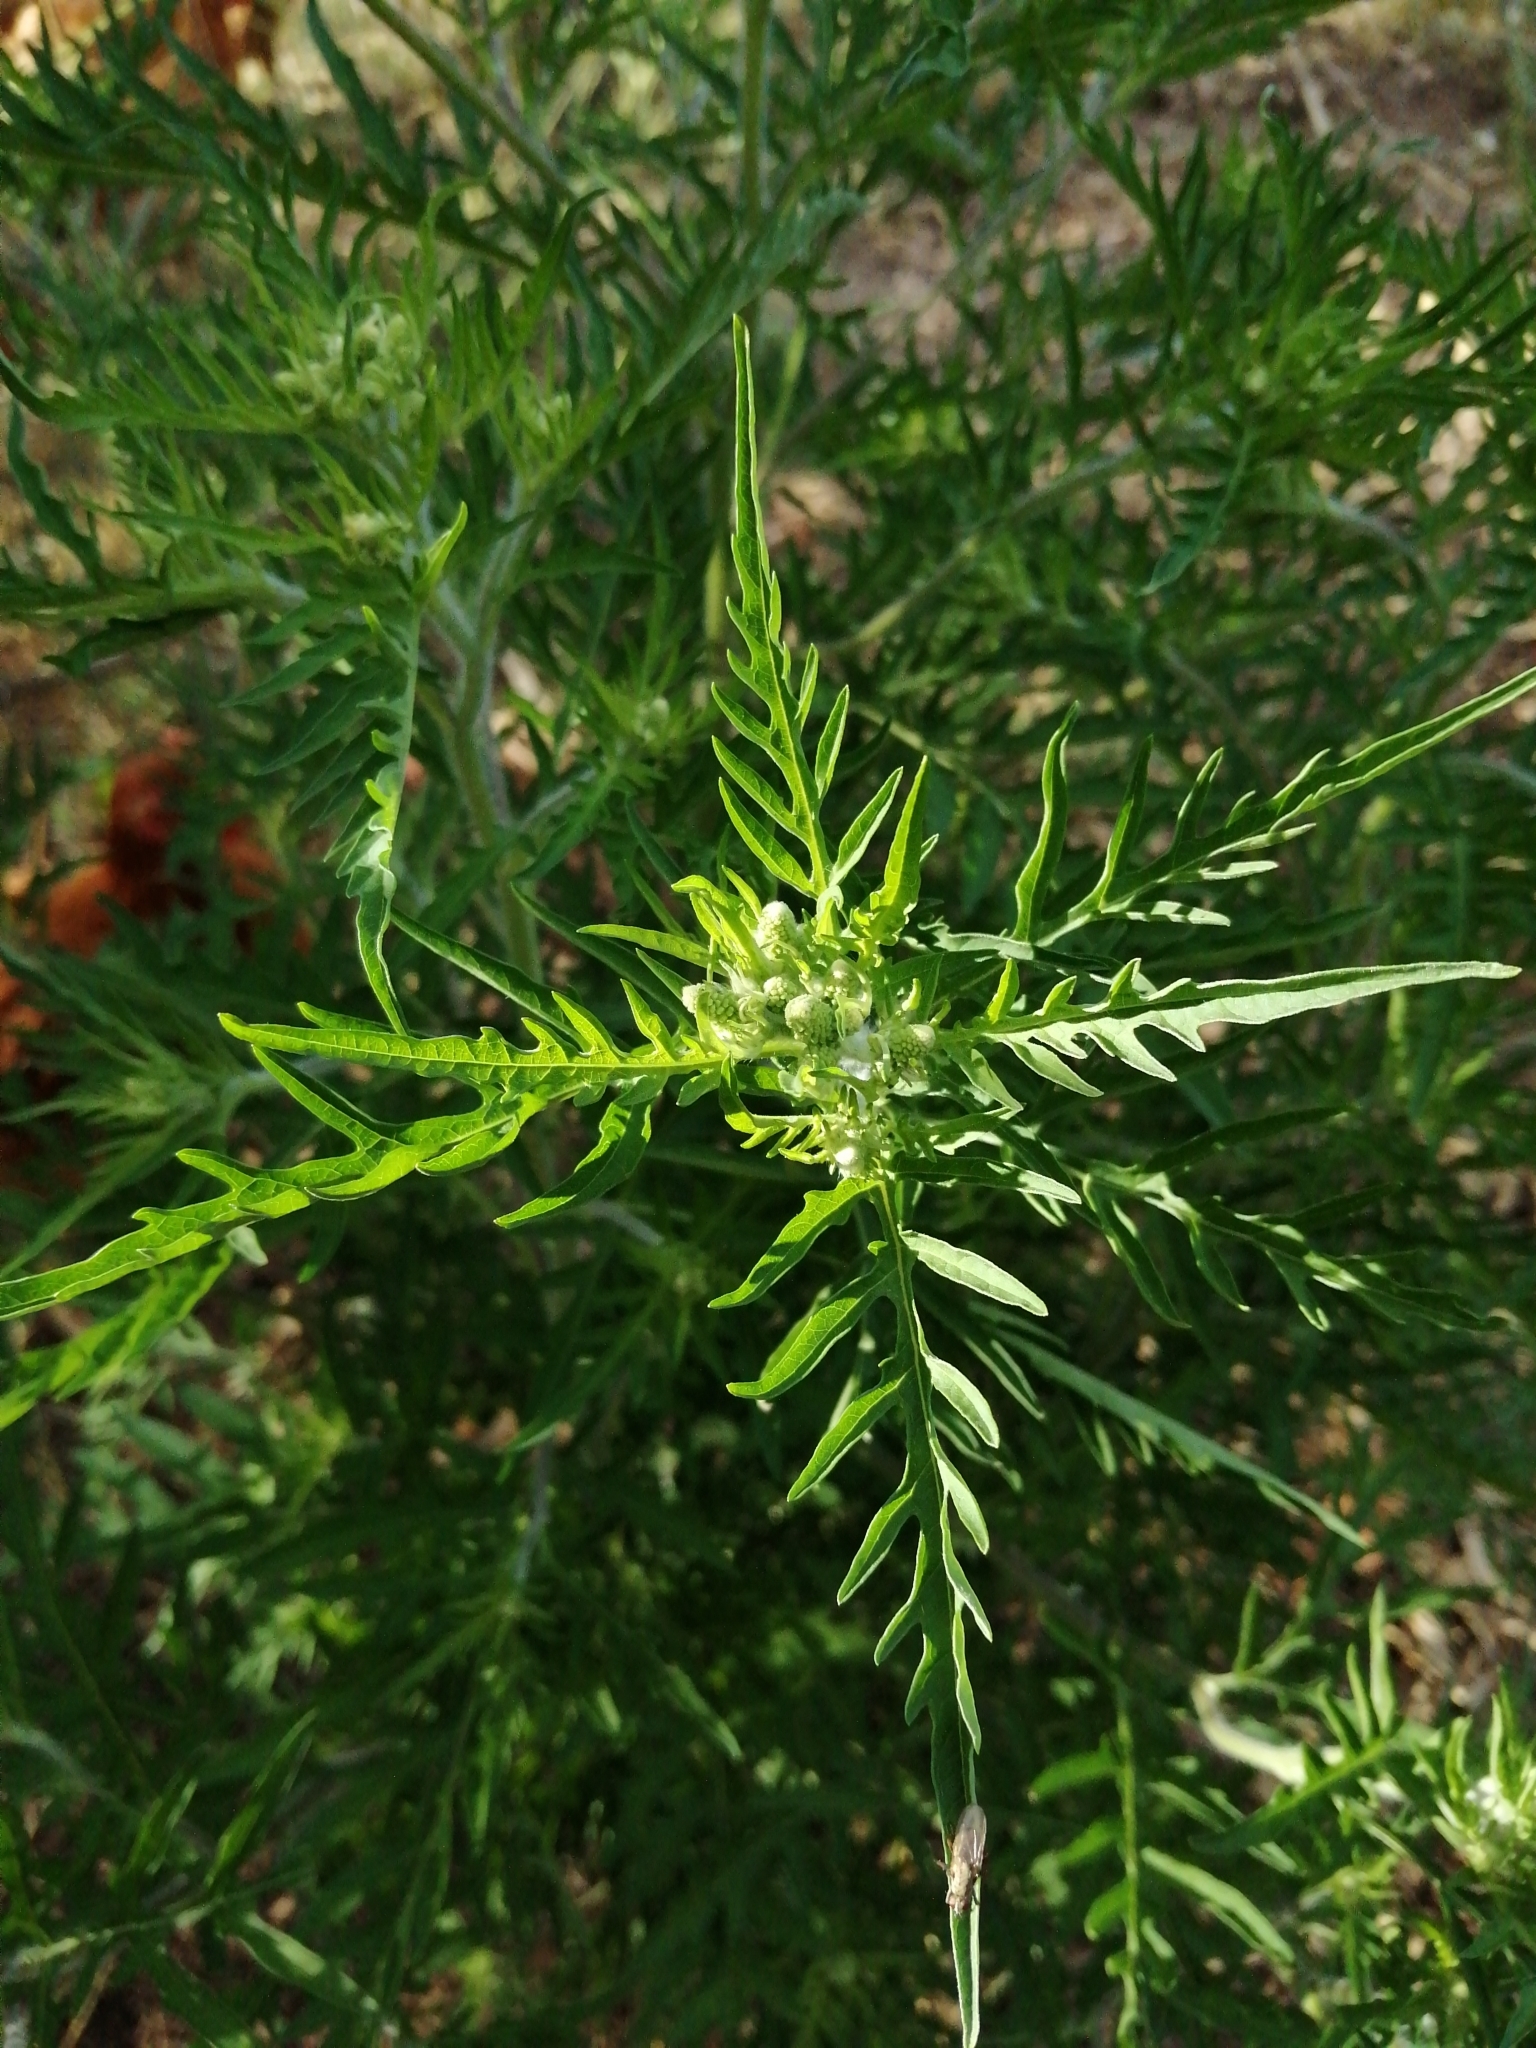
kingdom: Plantae
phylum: Tracheophyta
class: Magnoliopsida
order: Asterales
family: Asteraceae
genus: Ambrosia
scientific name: Ambrosia artemisiifolia
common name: Annual ragweed
